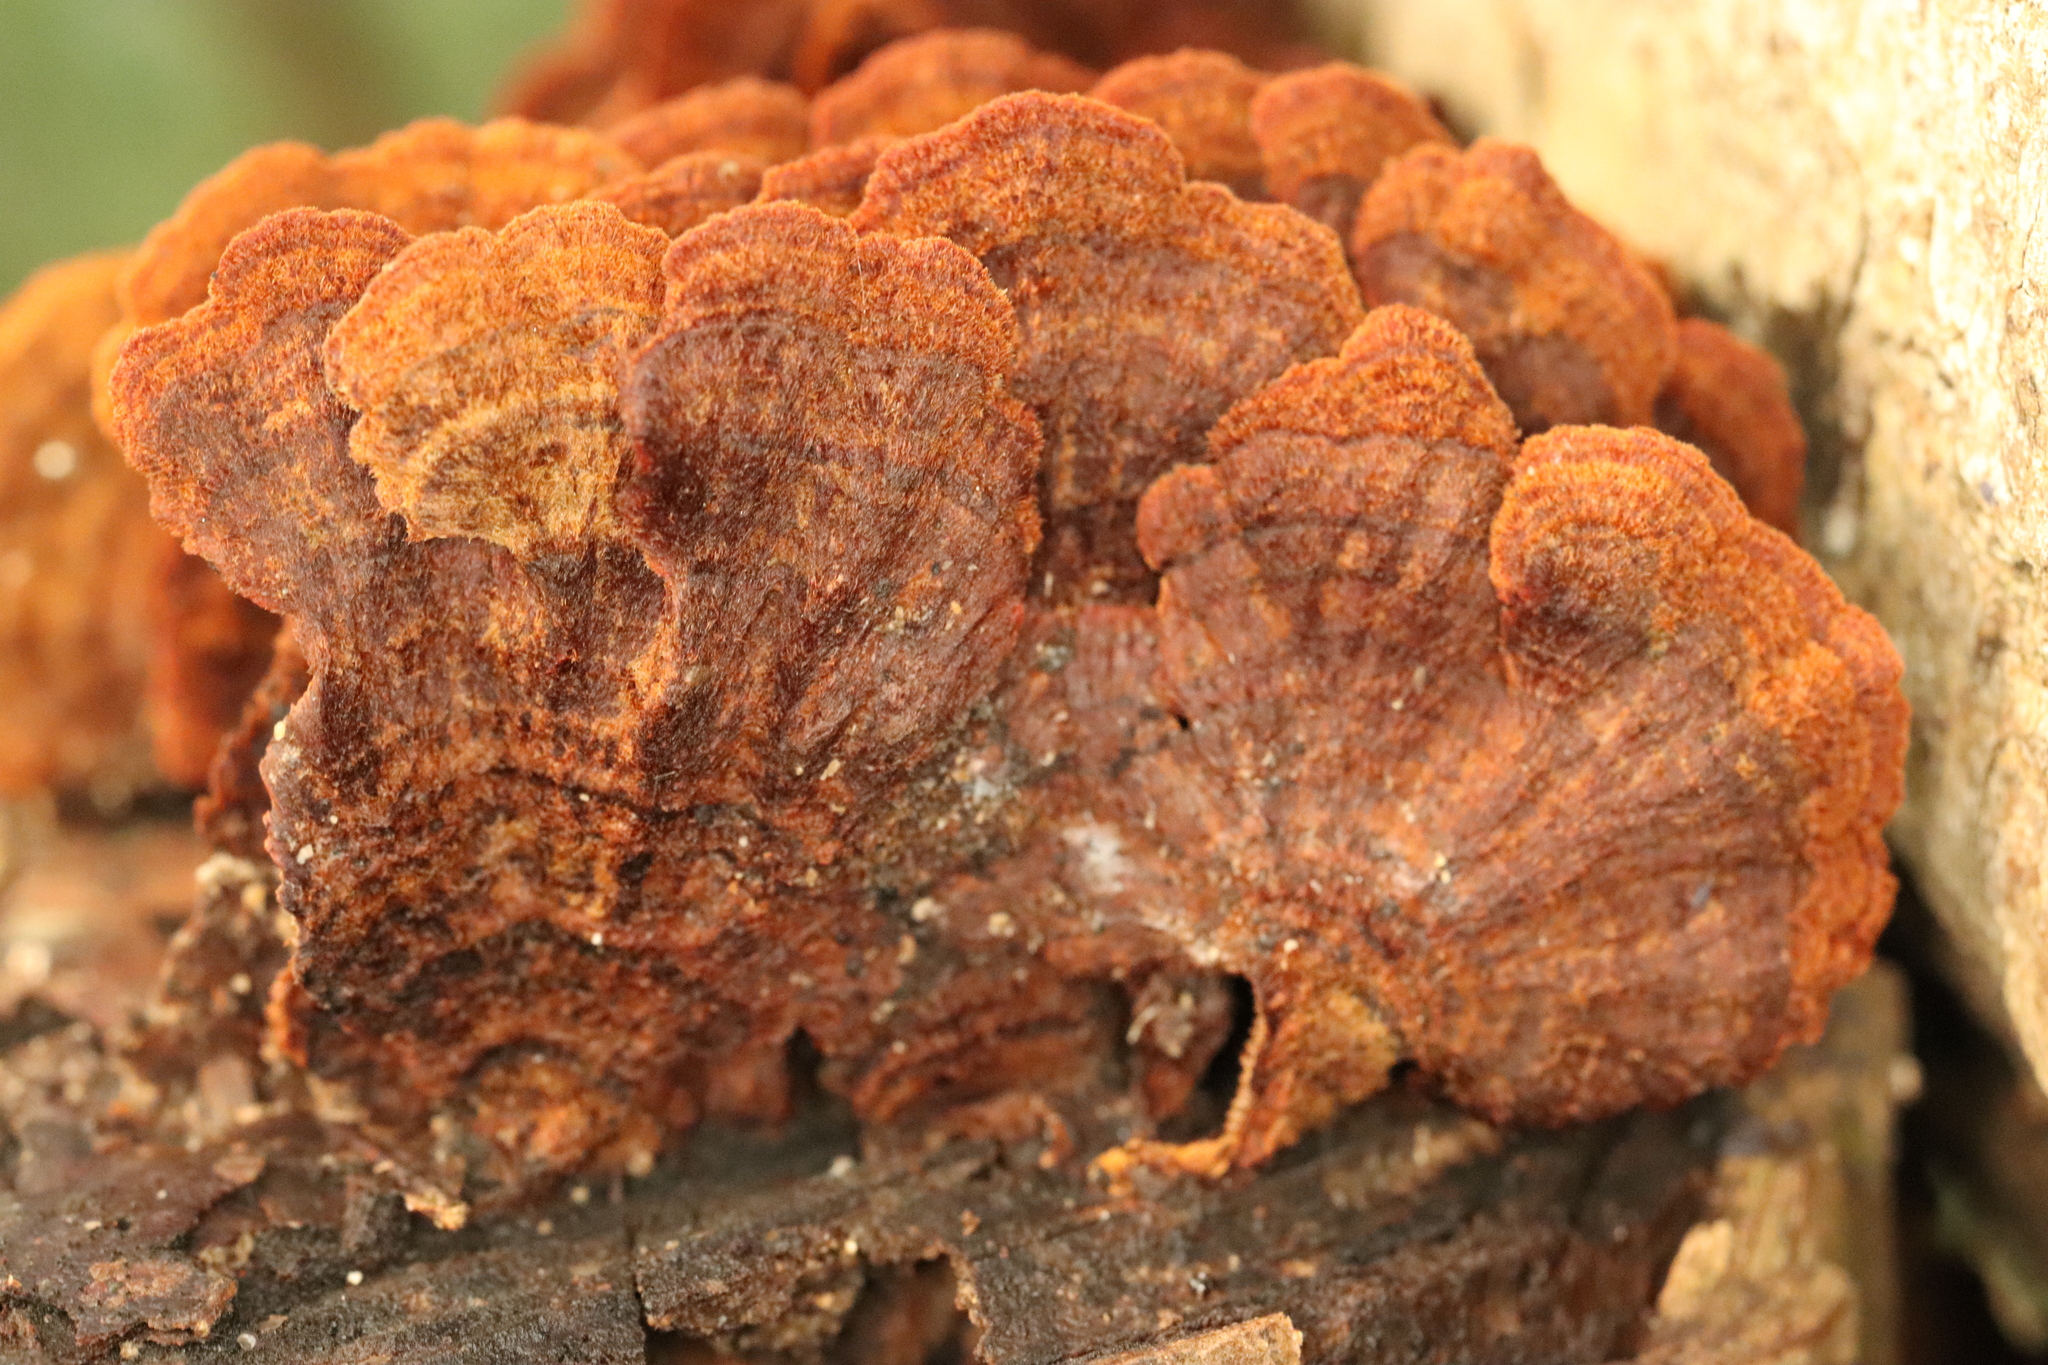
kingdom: Fungi
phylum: Basidiomycota
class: Agaricomycetes
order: Hymenochaetales
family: Hymenochaetaceae
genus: Hymenochaete
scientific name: Hymenochaete cyclolamellata
